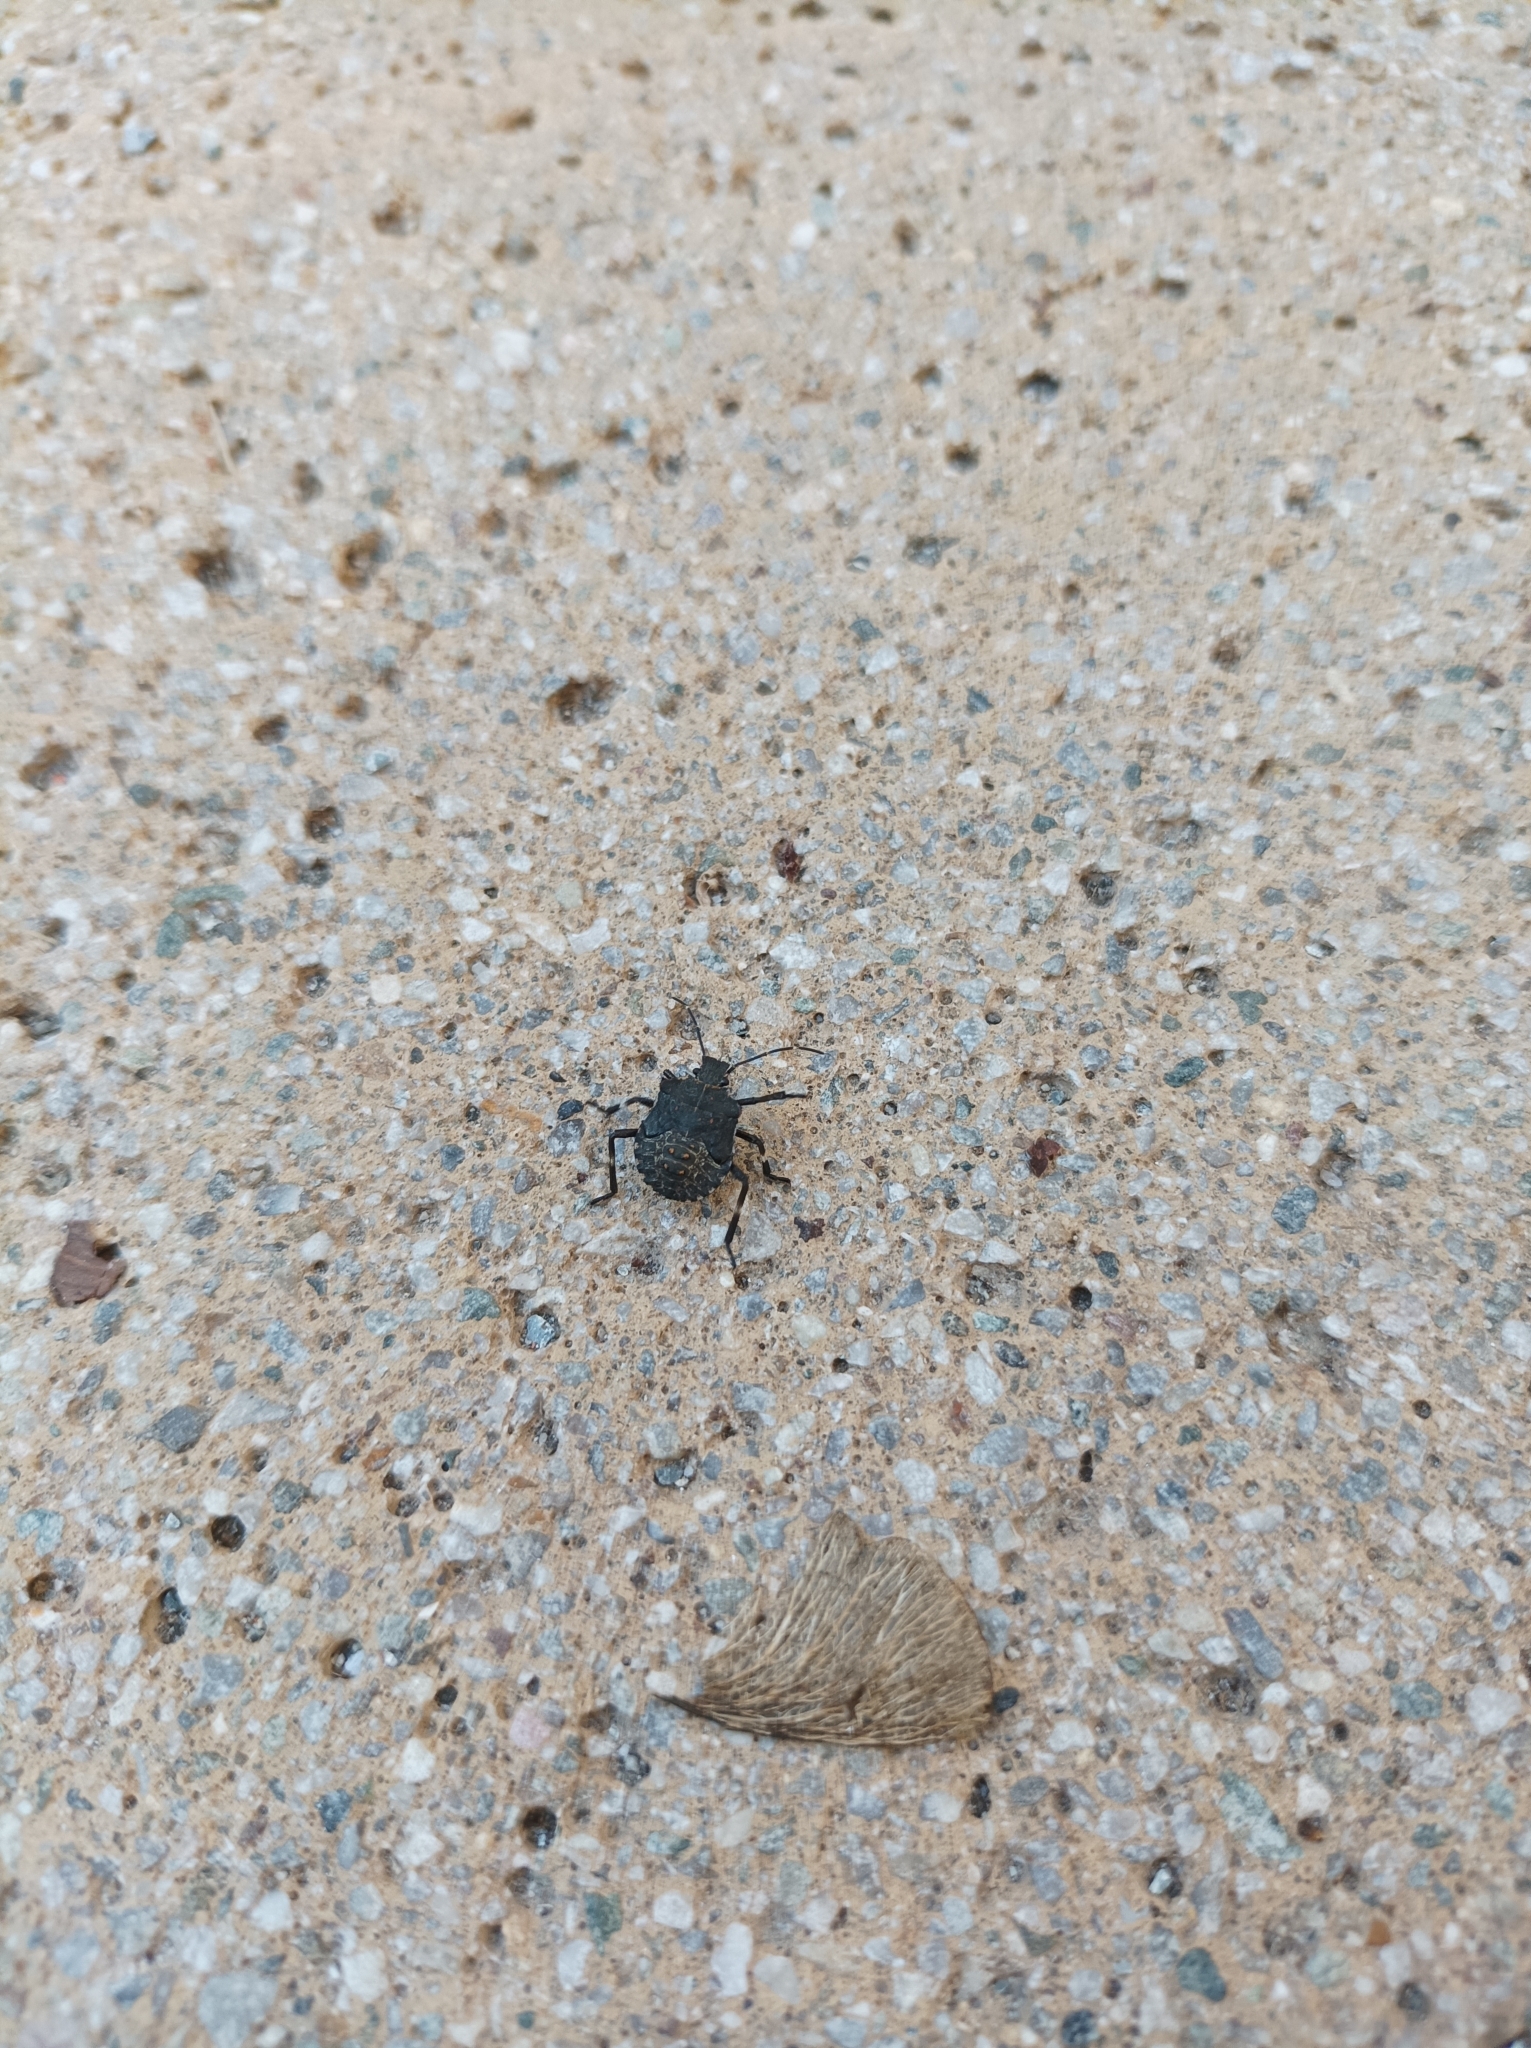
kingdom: Animalia
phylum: Arthropoda
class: Insecta
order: Hemiptera
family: Pentatomidae
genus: Halyomorpha
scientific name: Halyomorpha halys
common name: Brown marmorated stink bug
